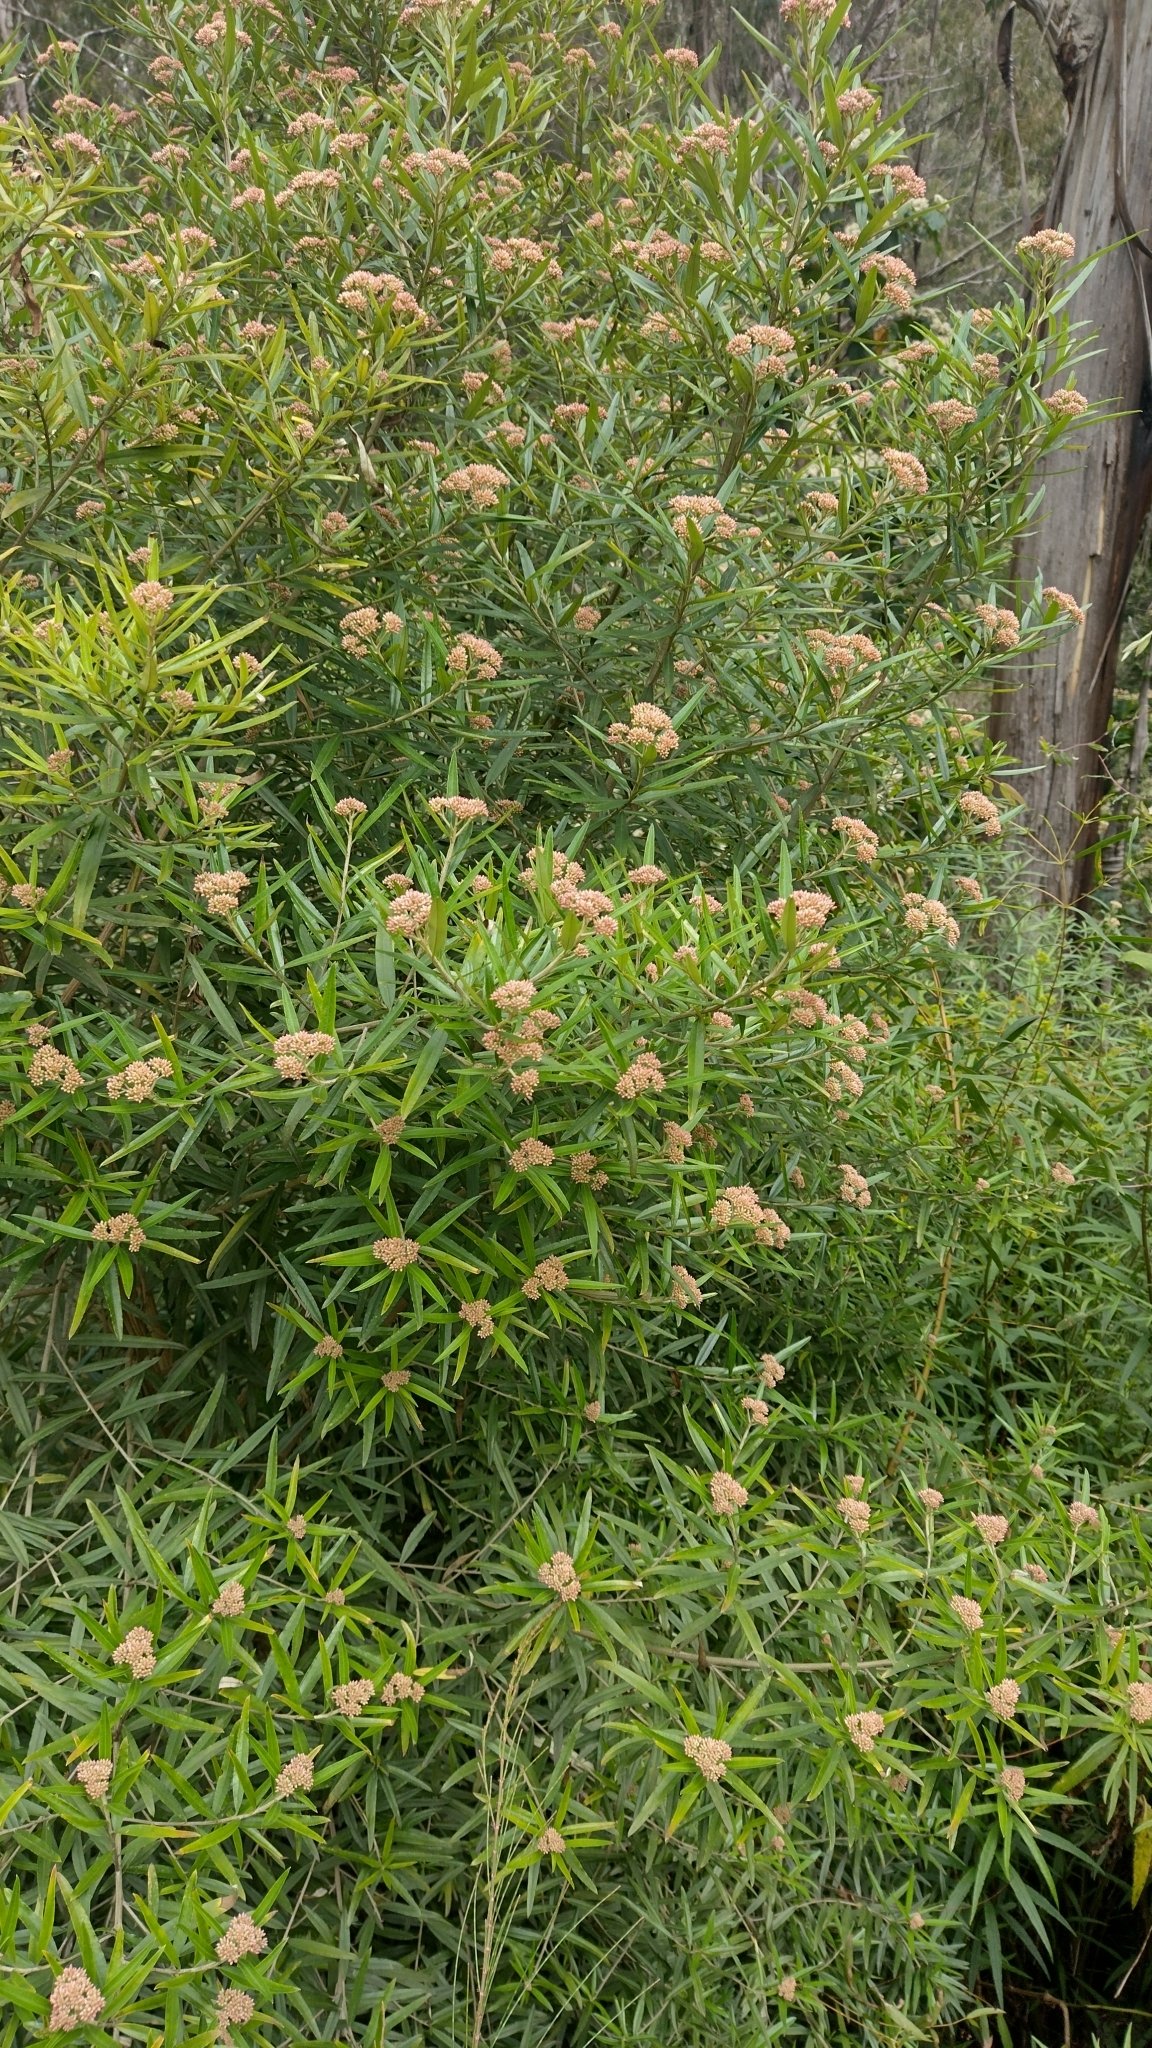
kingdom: Plantae
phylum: Tracheophyta
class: Magnoliopsida
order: Asterales
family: Asteraceae
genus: Ozothamnus
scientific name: Ozothamnus argophyllus
